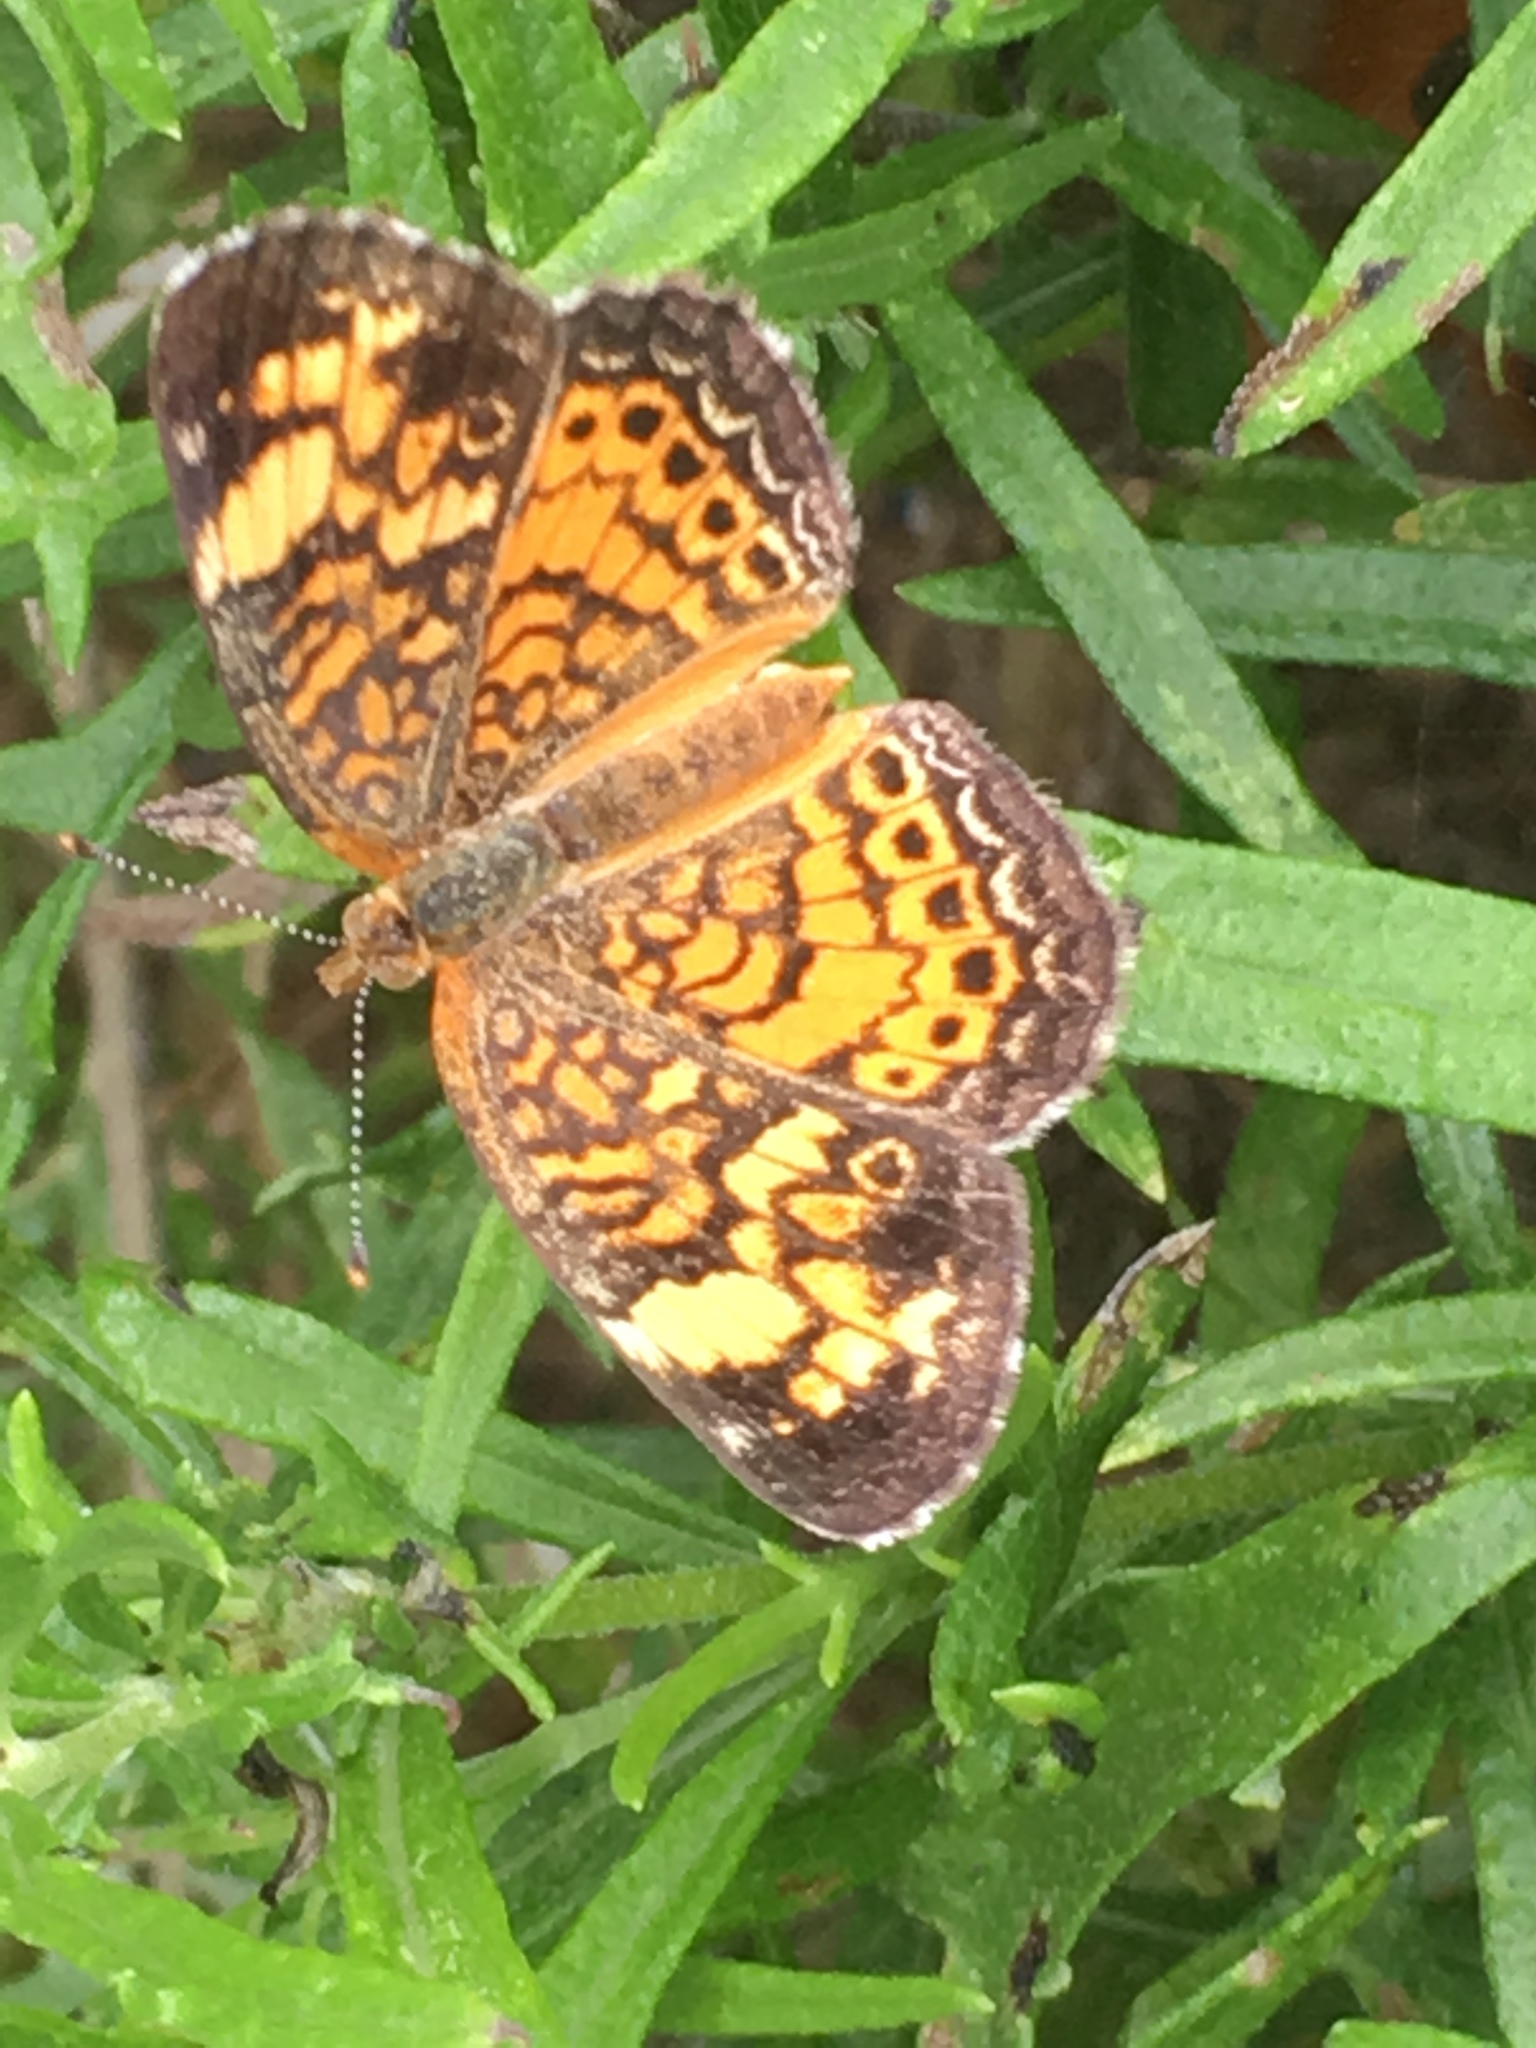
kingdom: Animalia
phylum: Arthropoda
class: Insecta
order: Lepidoptera
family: Nymphalidae
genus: Phyciodes
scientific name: Phyciodes tharos
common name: Pearl crescent
